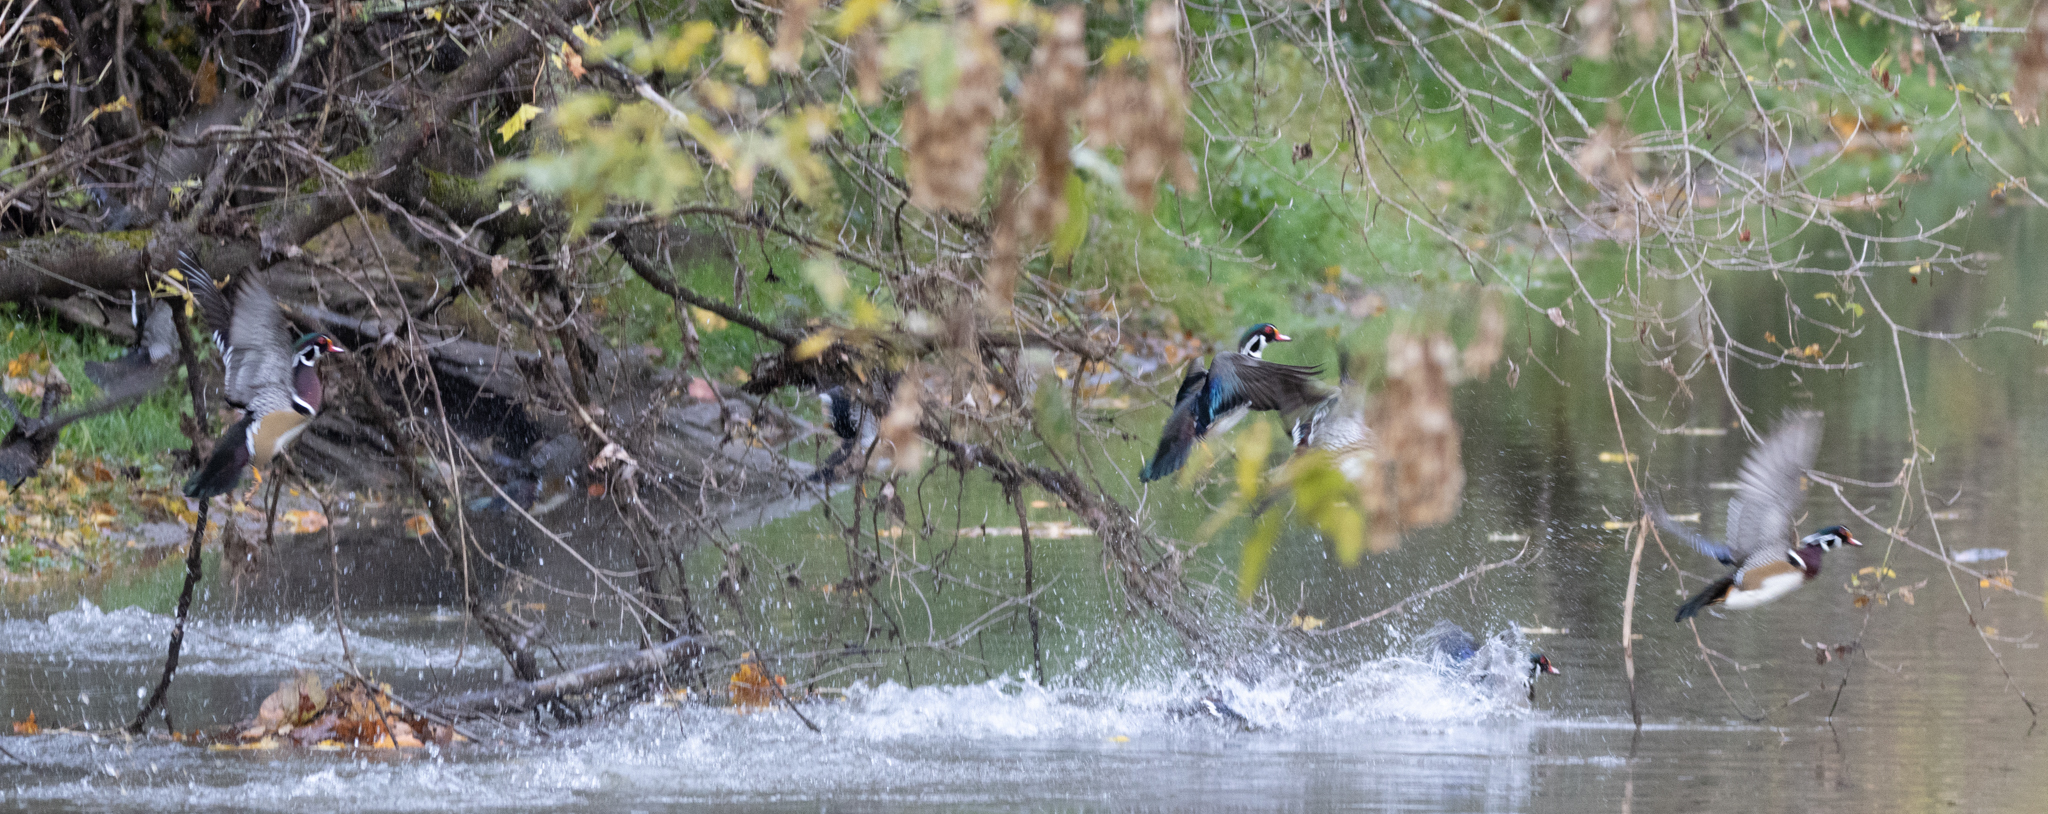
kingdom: Animalia
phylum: Chordata
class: Aves
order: Anseriformes
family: Anatidae
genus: Aix
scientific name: Aix sponsa
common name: Wood duck
